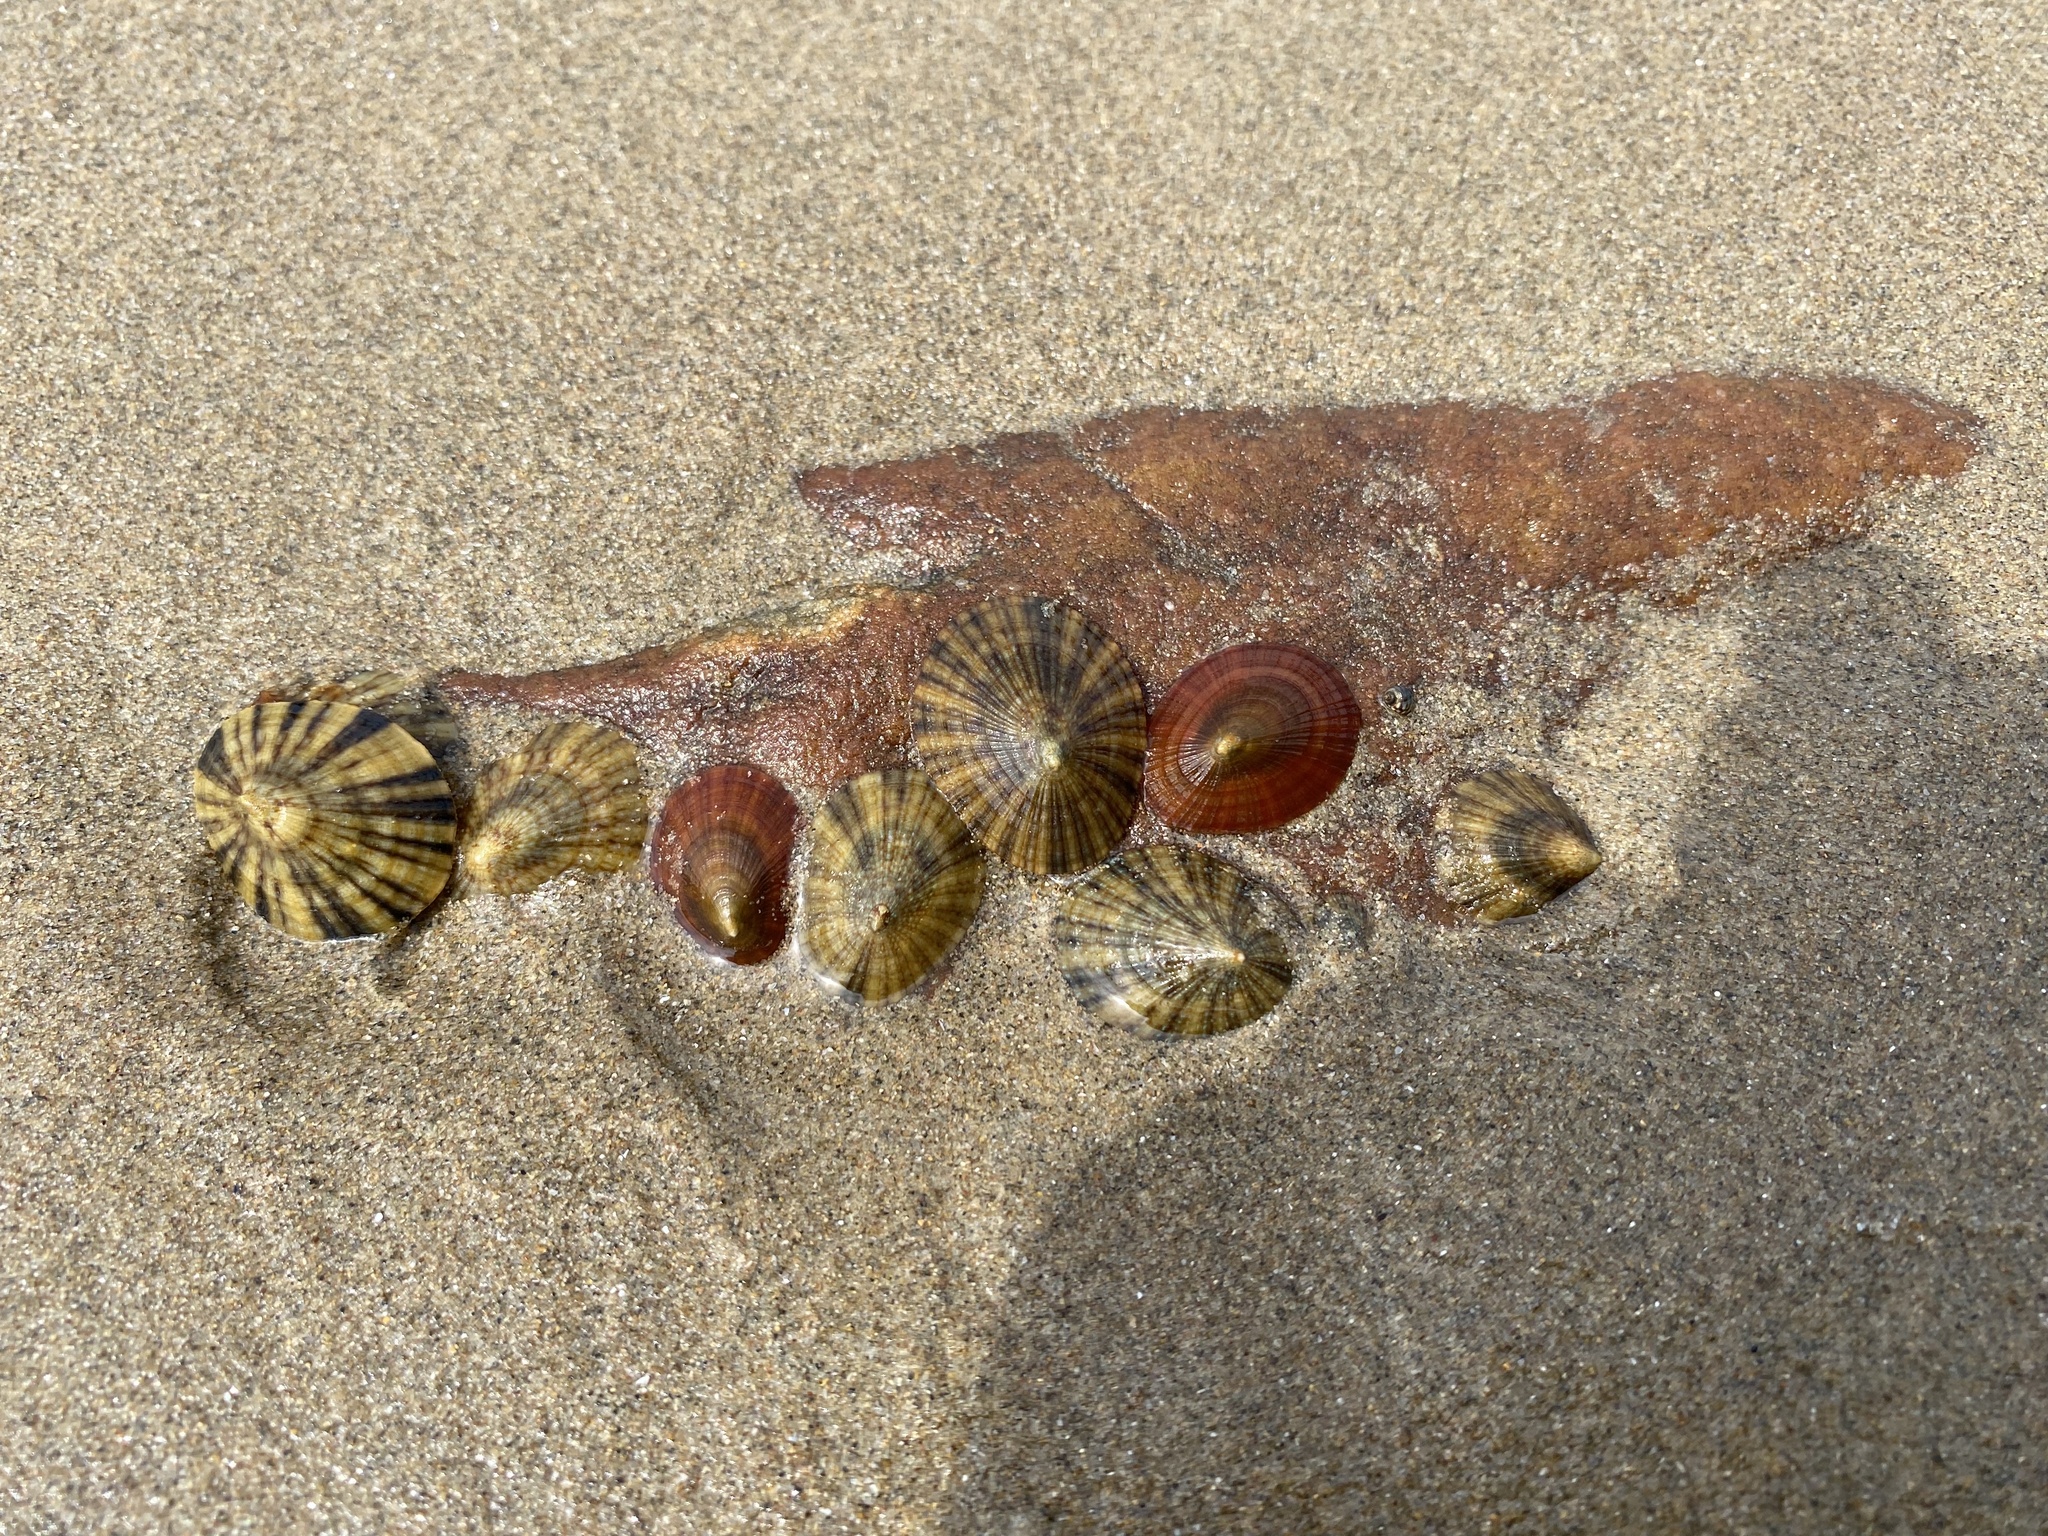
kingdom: Animalia
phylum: Mollusca
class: Gastropoda
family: Patellidae
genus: Helcion
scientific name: Helcion concolor
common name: Variable limpet
